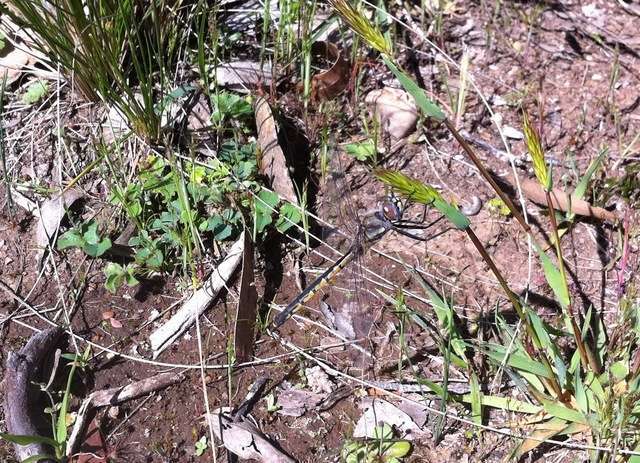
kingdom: Animalia
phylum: Arthropoda
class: Insecta
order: Odonata
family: Corduliidae
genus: Hemicordulia
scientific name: Hemicordulia tau
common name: Tau emerald
